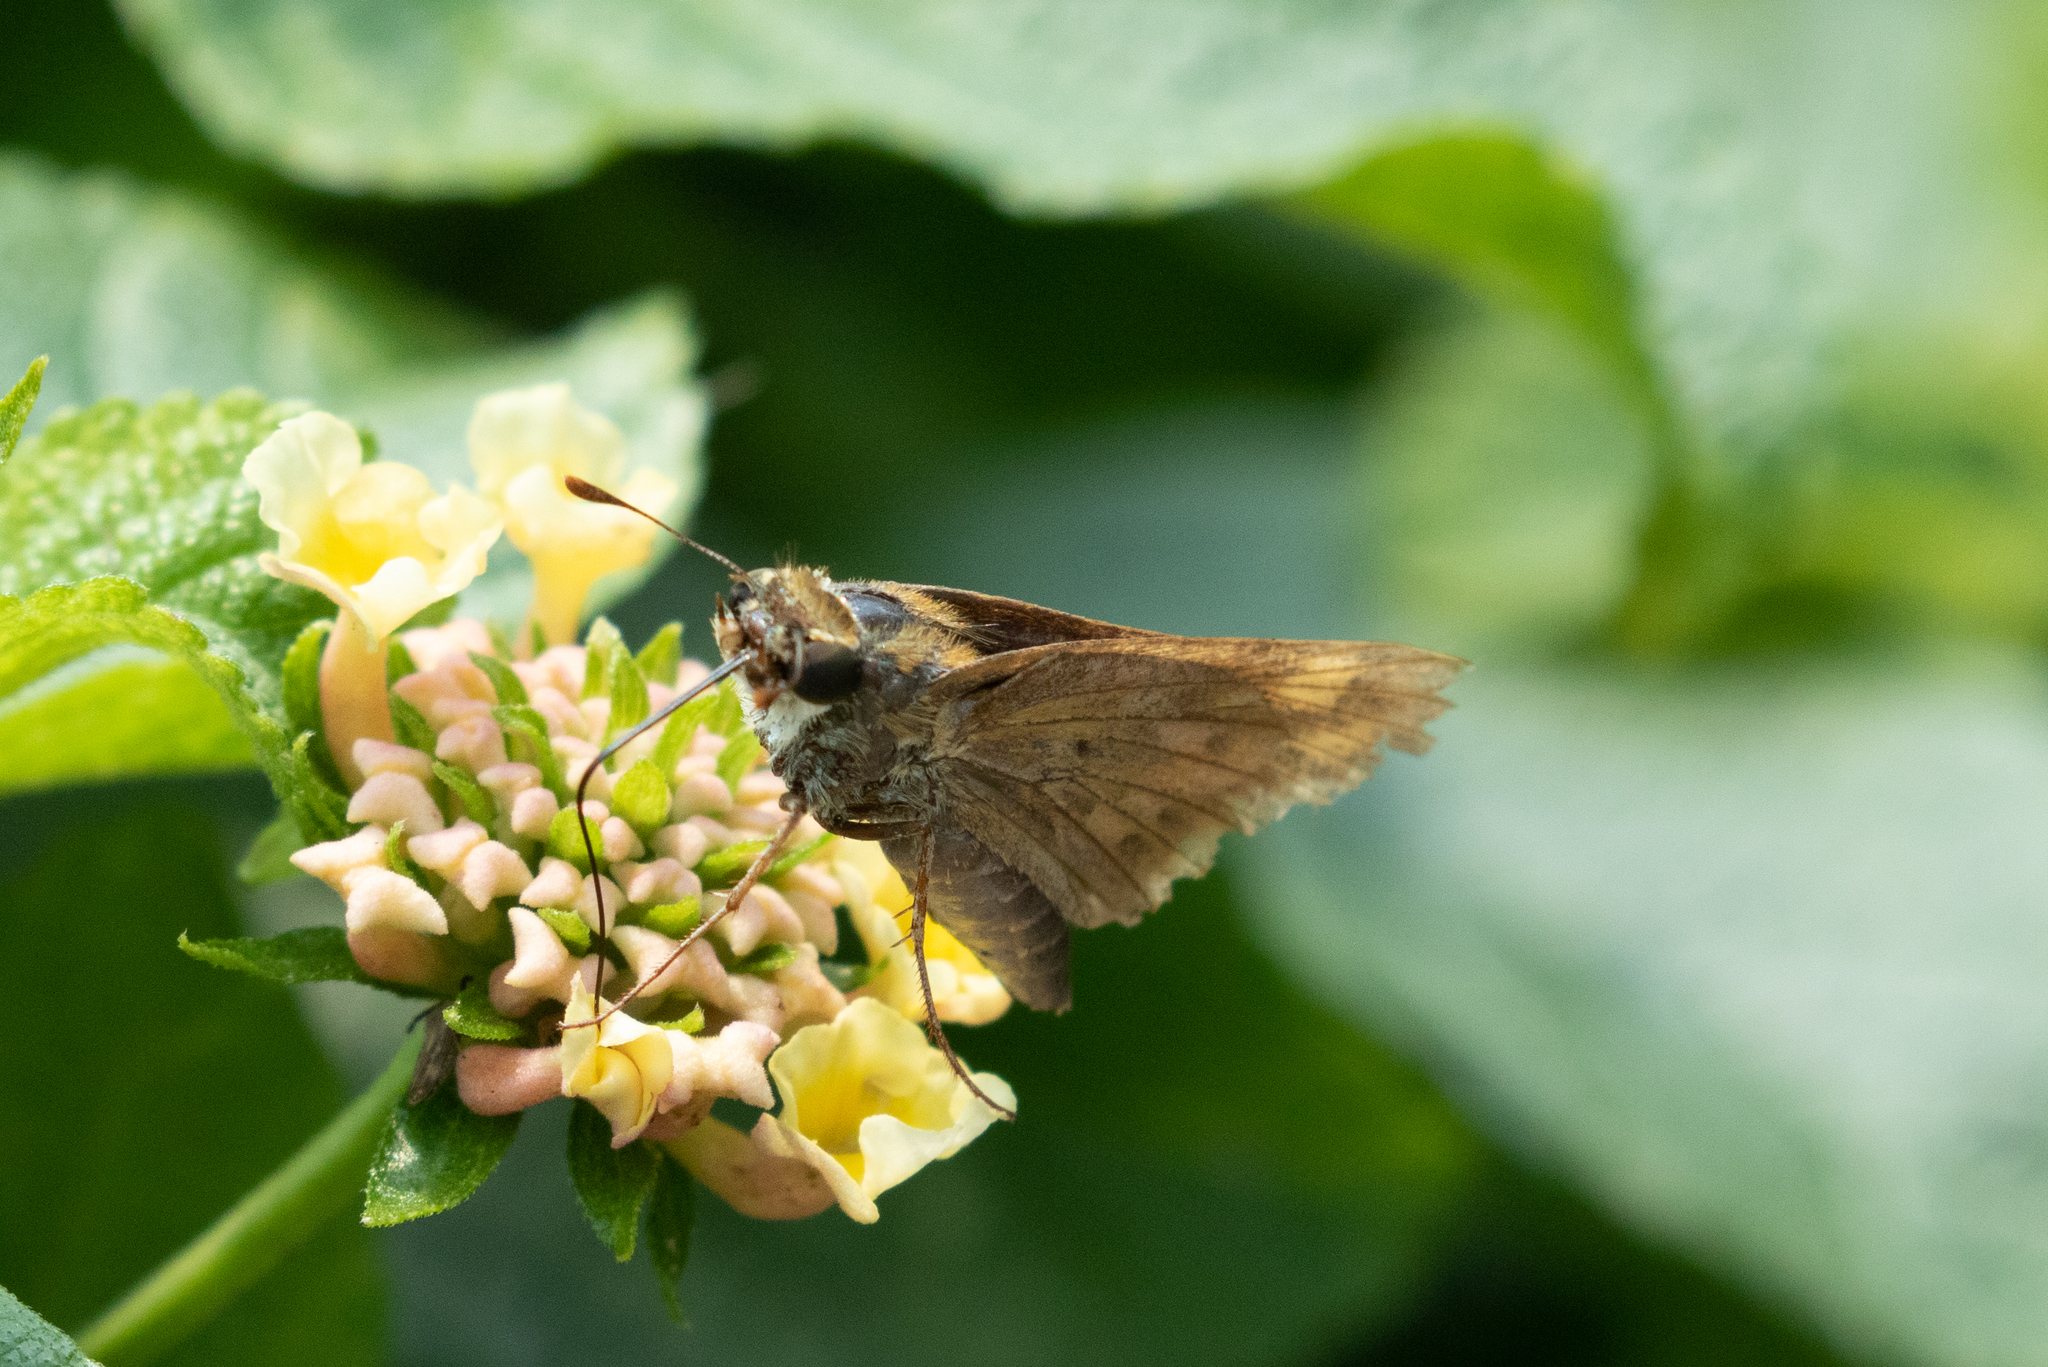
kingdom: Animalia
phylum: Arthropoda
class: Insecta
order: Lepidoptera
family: Hesperiidae
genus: Hylephila
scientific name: Hylephila phyleus
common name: Fiery skipper
